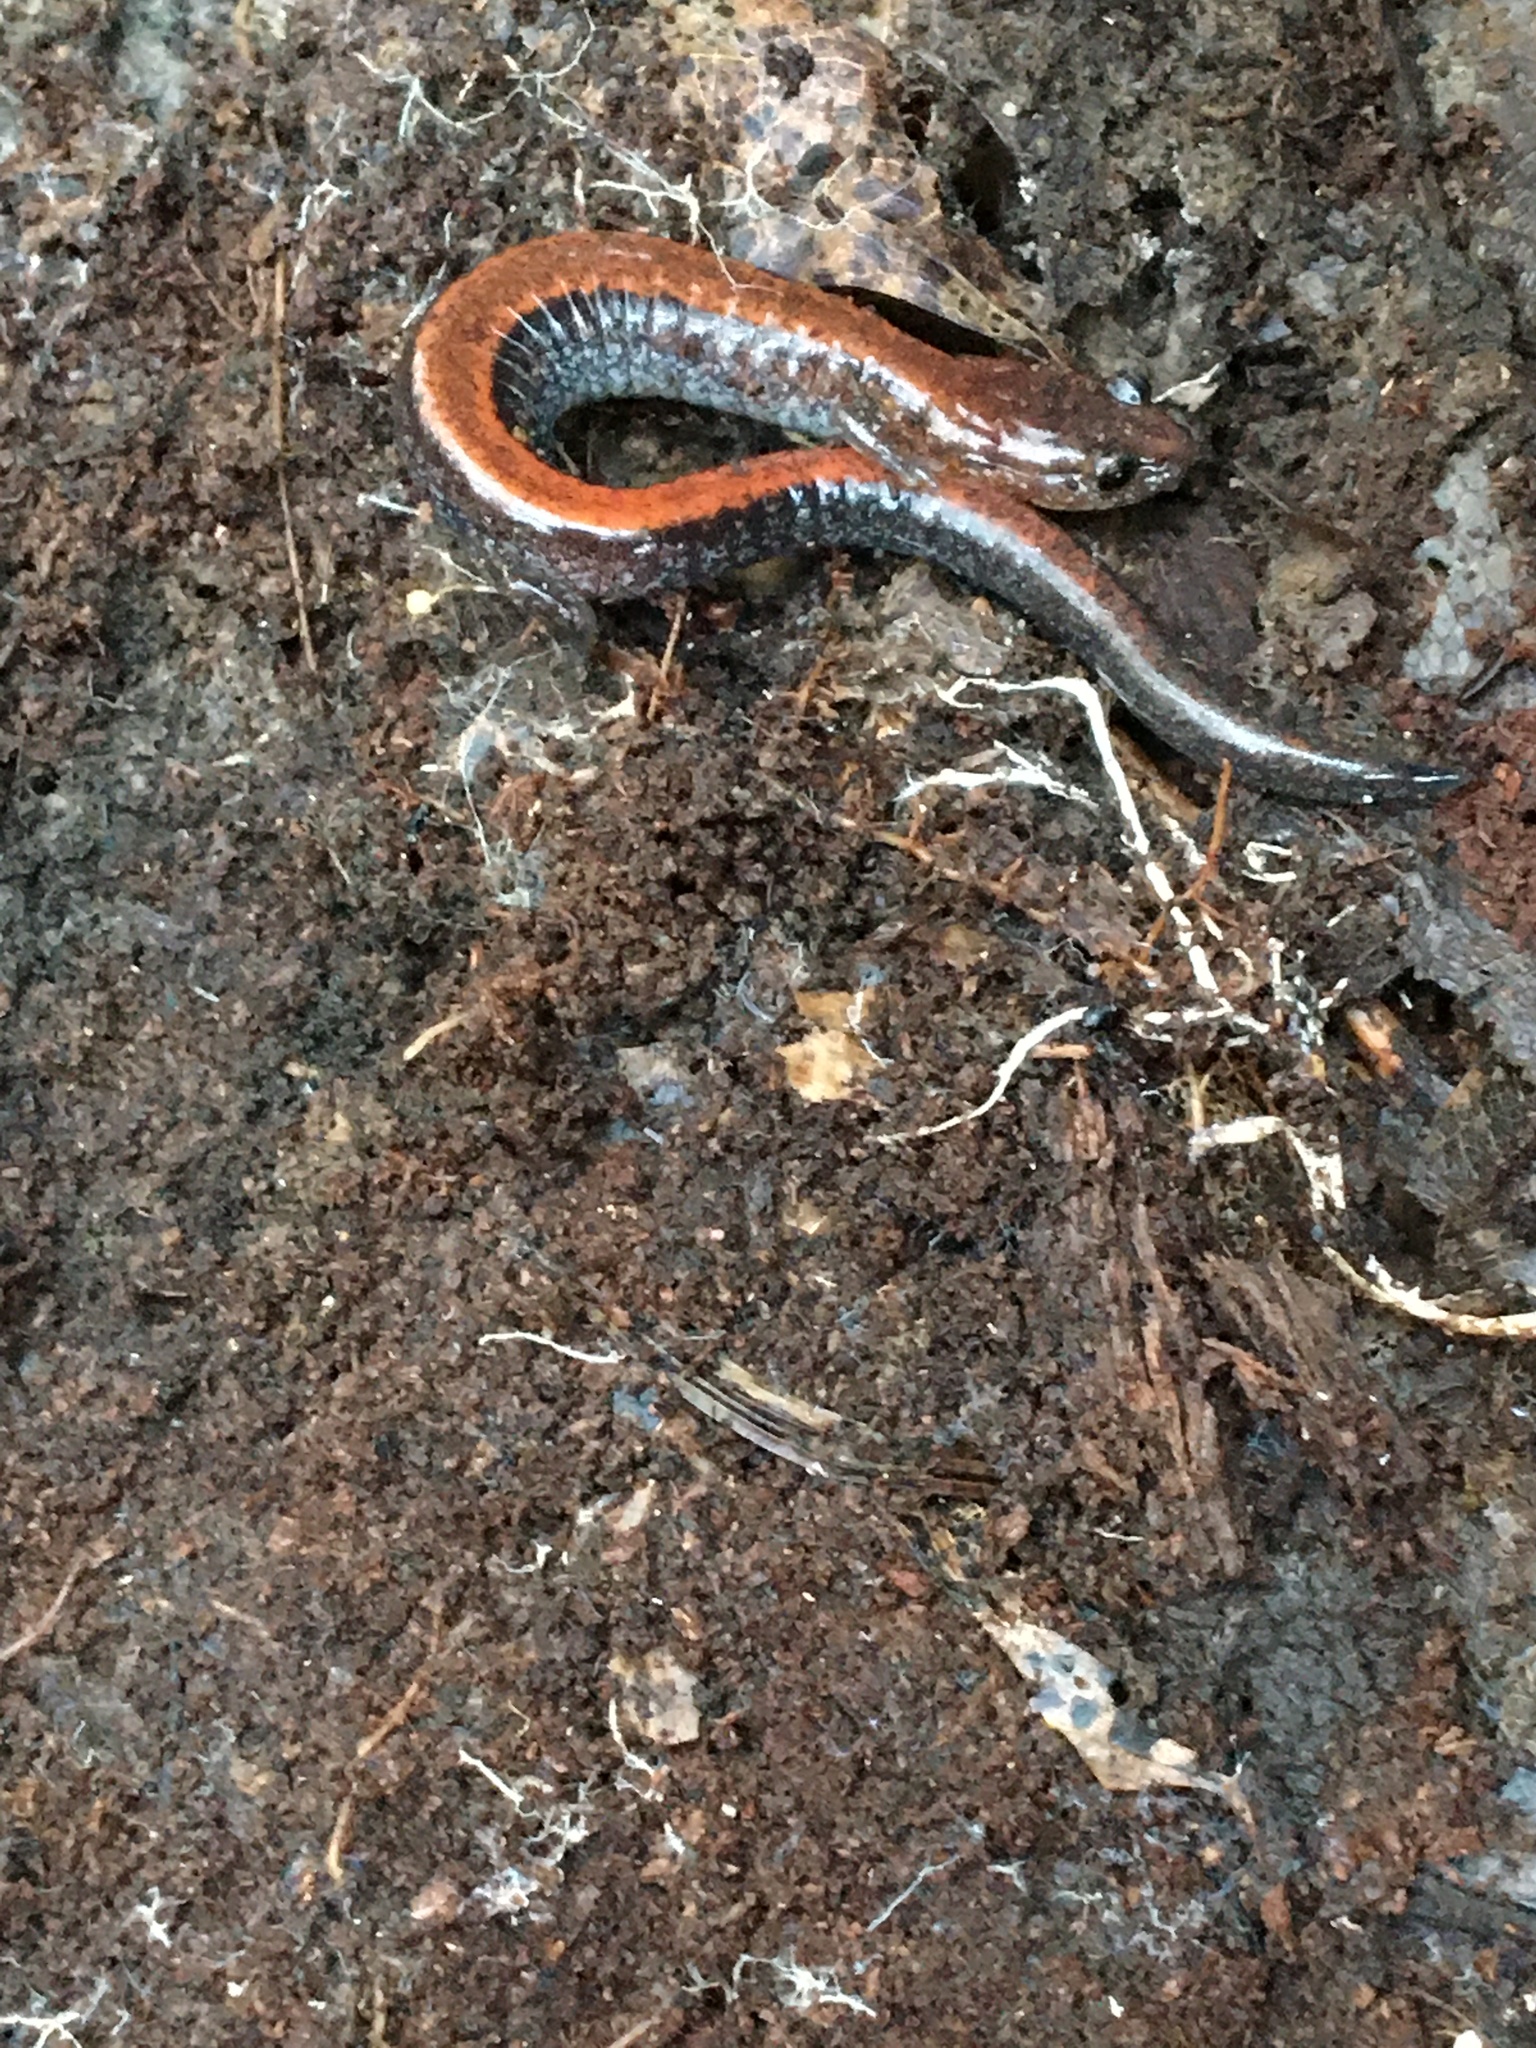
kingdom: Animalia
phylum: Chordata
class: Amphibia
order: Caudata
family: Plethodontidae
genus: Plethodon
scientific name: Plethodon cinereus
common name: Redback salamander
